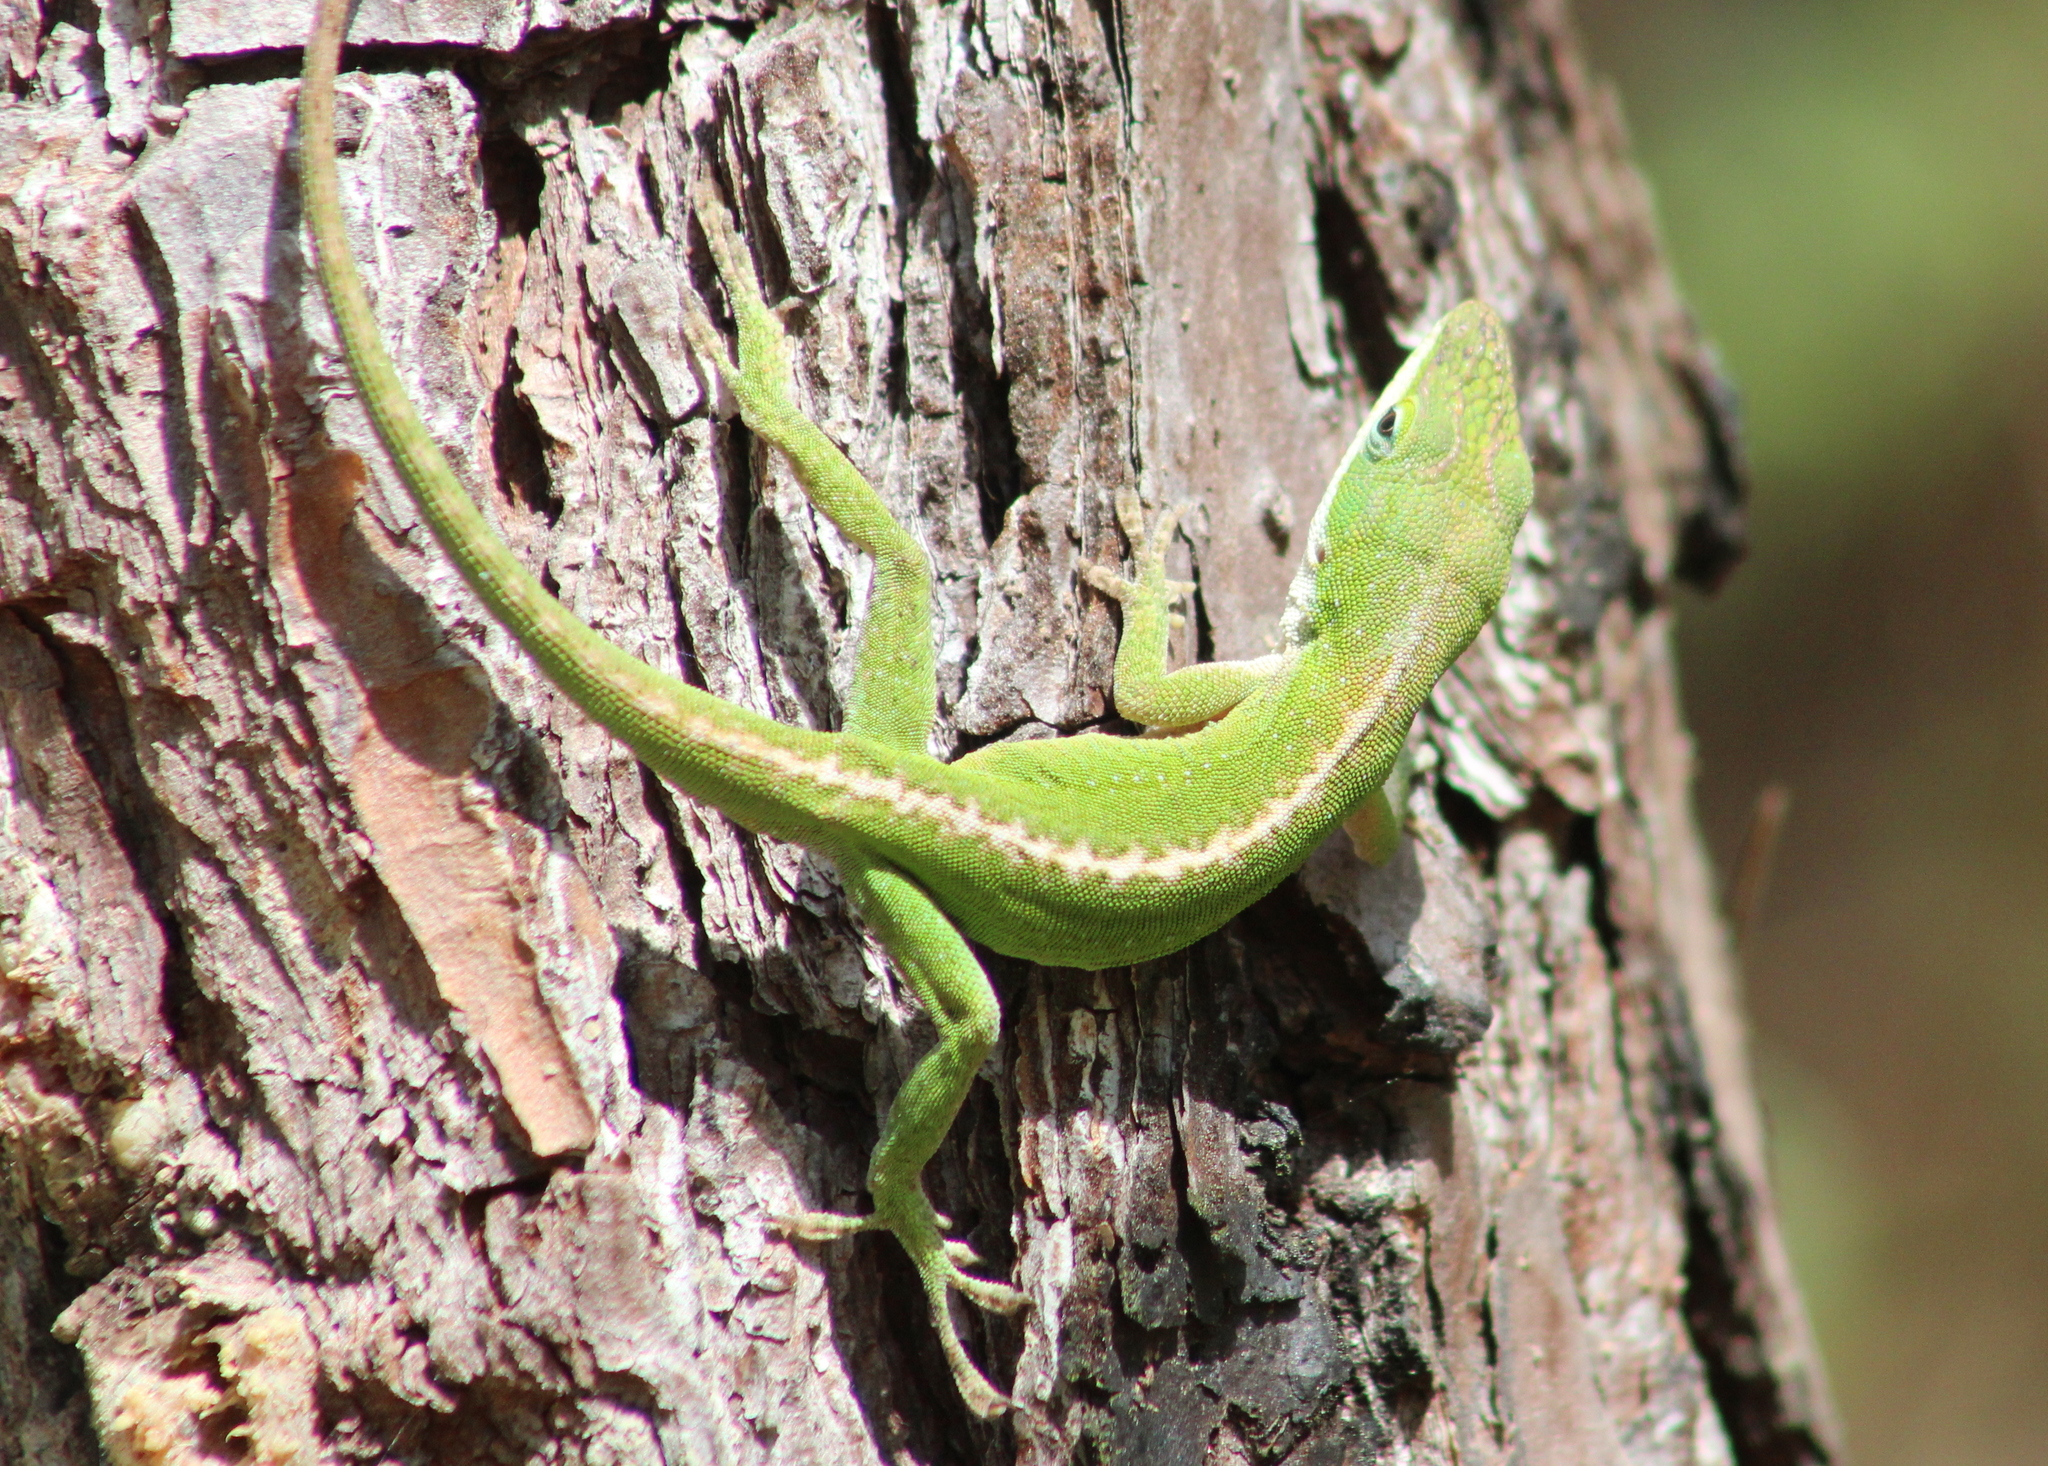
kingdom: Animalia
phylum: Chordata
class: Squamata
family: Dactyloidae
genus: Anolis
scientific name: Anolis carolinensis
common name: Green anole
